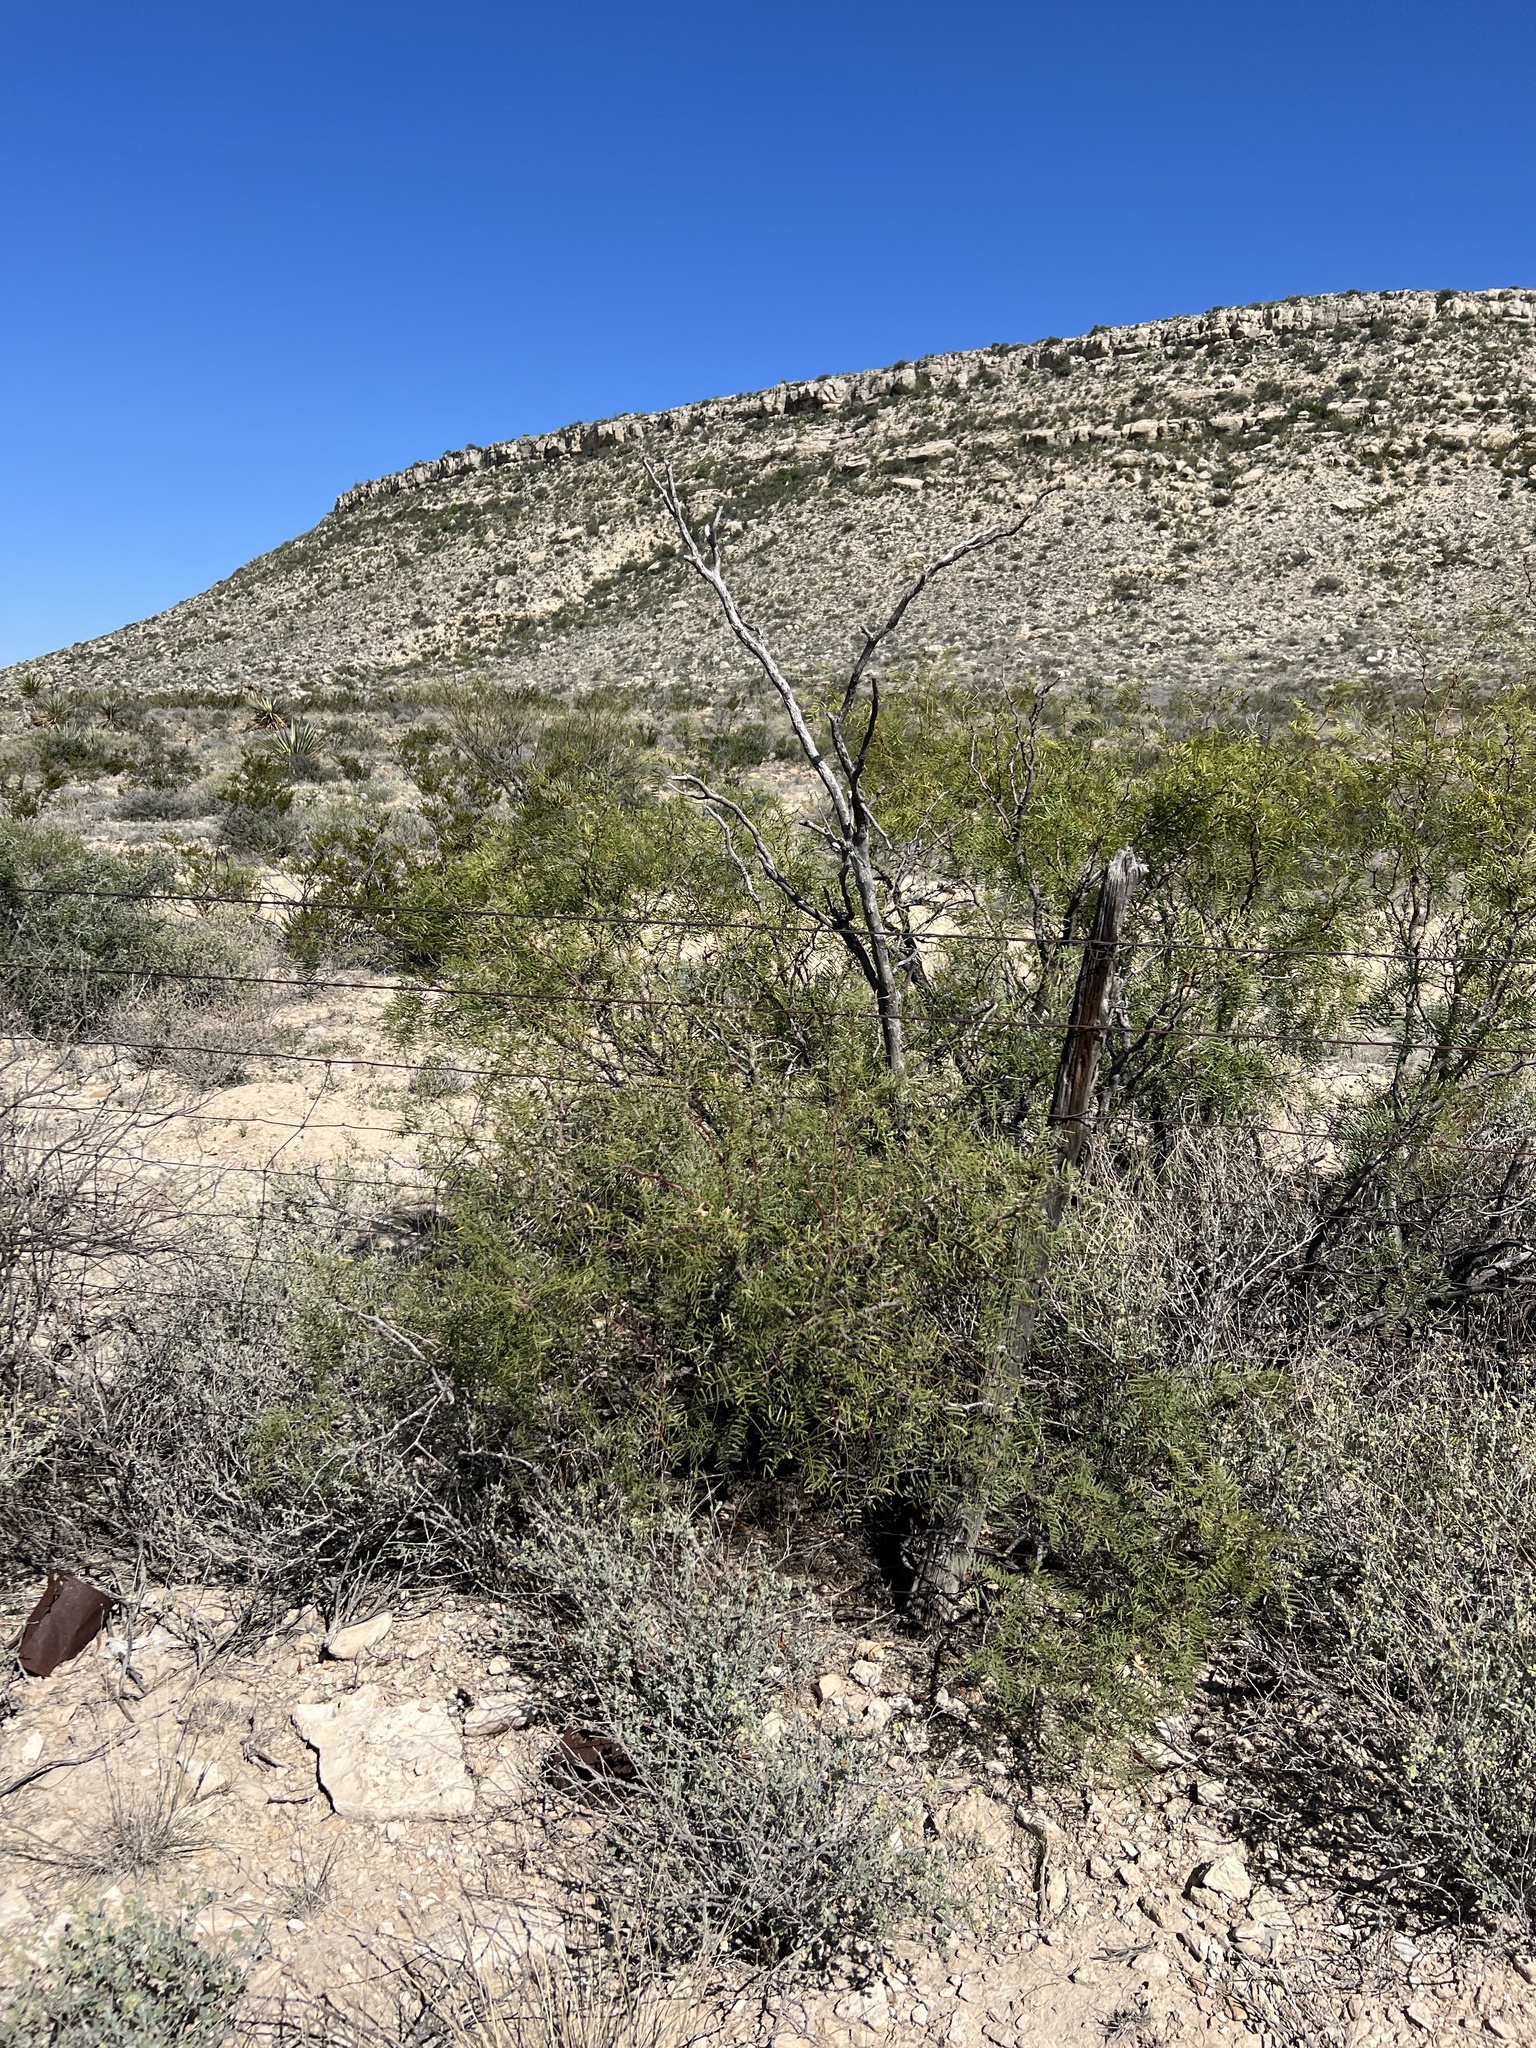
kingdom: Plantae
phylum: Tracheophyta
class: Magnoliopsida
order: Fabales
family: Fabaceae
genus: Prosopis
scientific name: Prosopis glandulosa
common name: Honey mesquite
